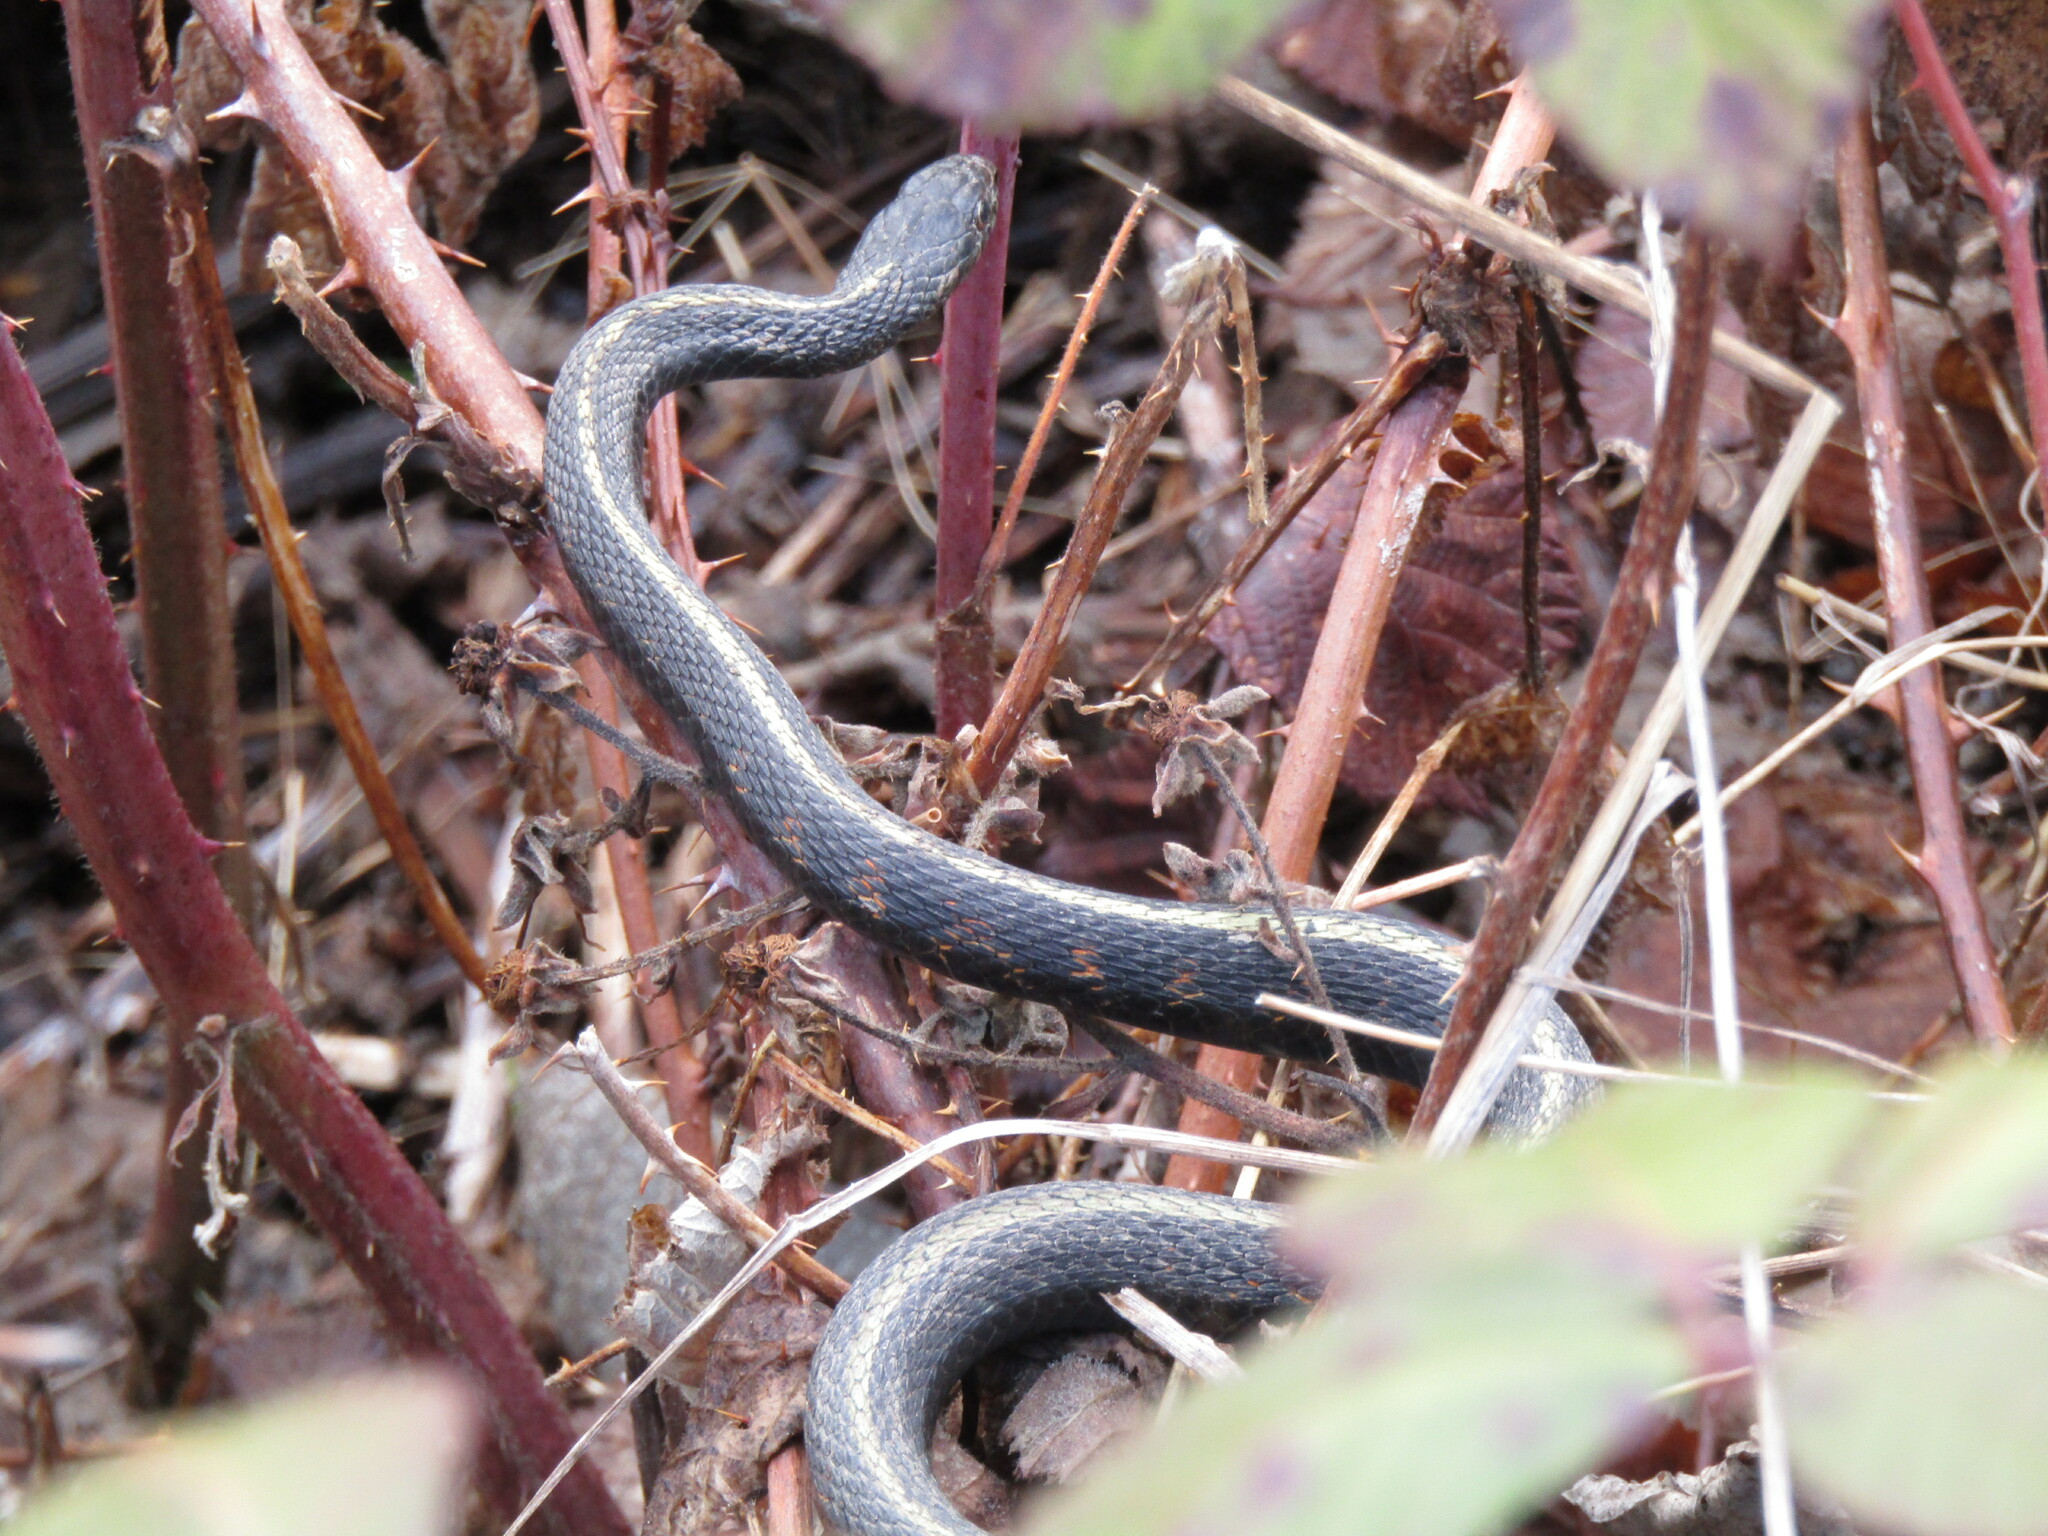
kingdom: Animalia
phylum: Chordata
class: Squamata
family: Colubridae
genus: Thamnophis
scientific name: Thamnophis sirtalis
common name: Common garter snake
